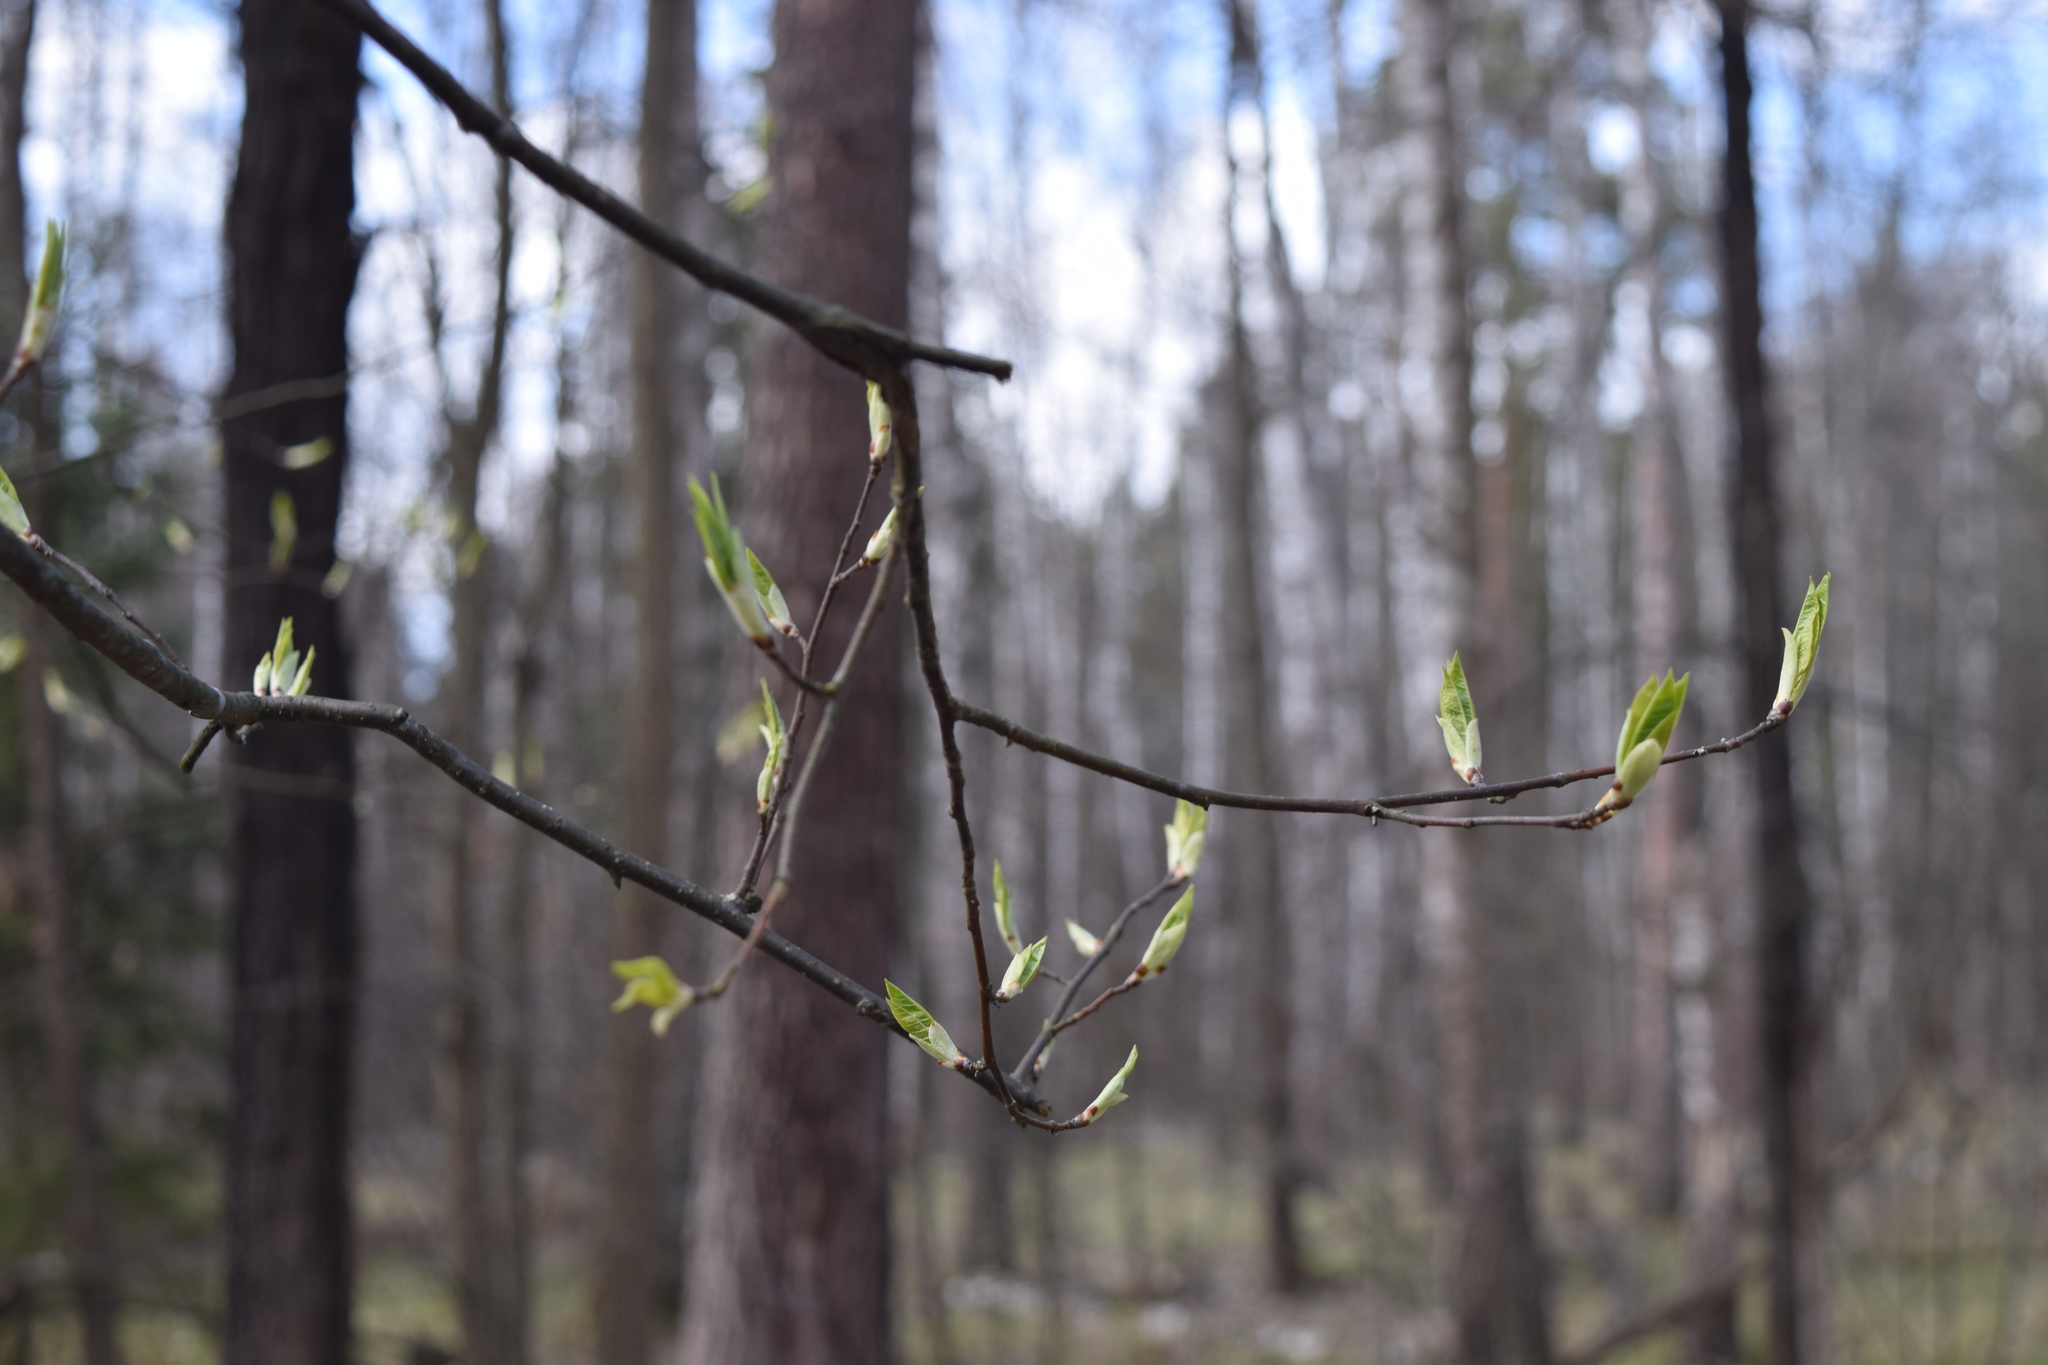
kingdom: Plantae
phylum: Tracheophyta
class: Magnoliopsida
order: Rosales
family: Rosaceae
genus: Prunus
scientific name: Prunus padus
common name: Bird cherry
